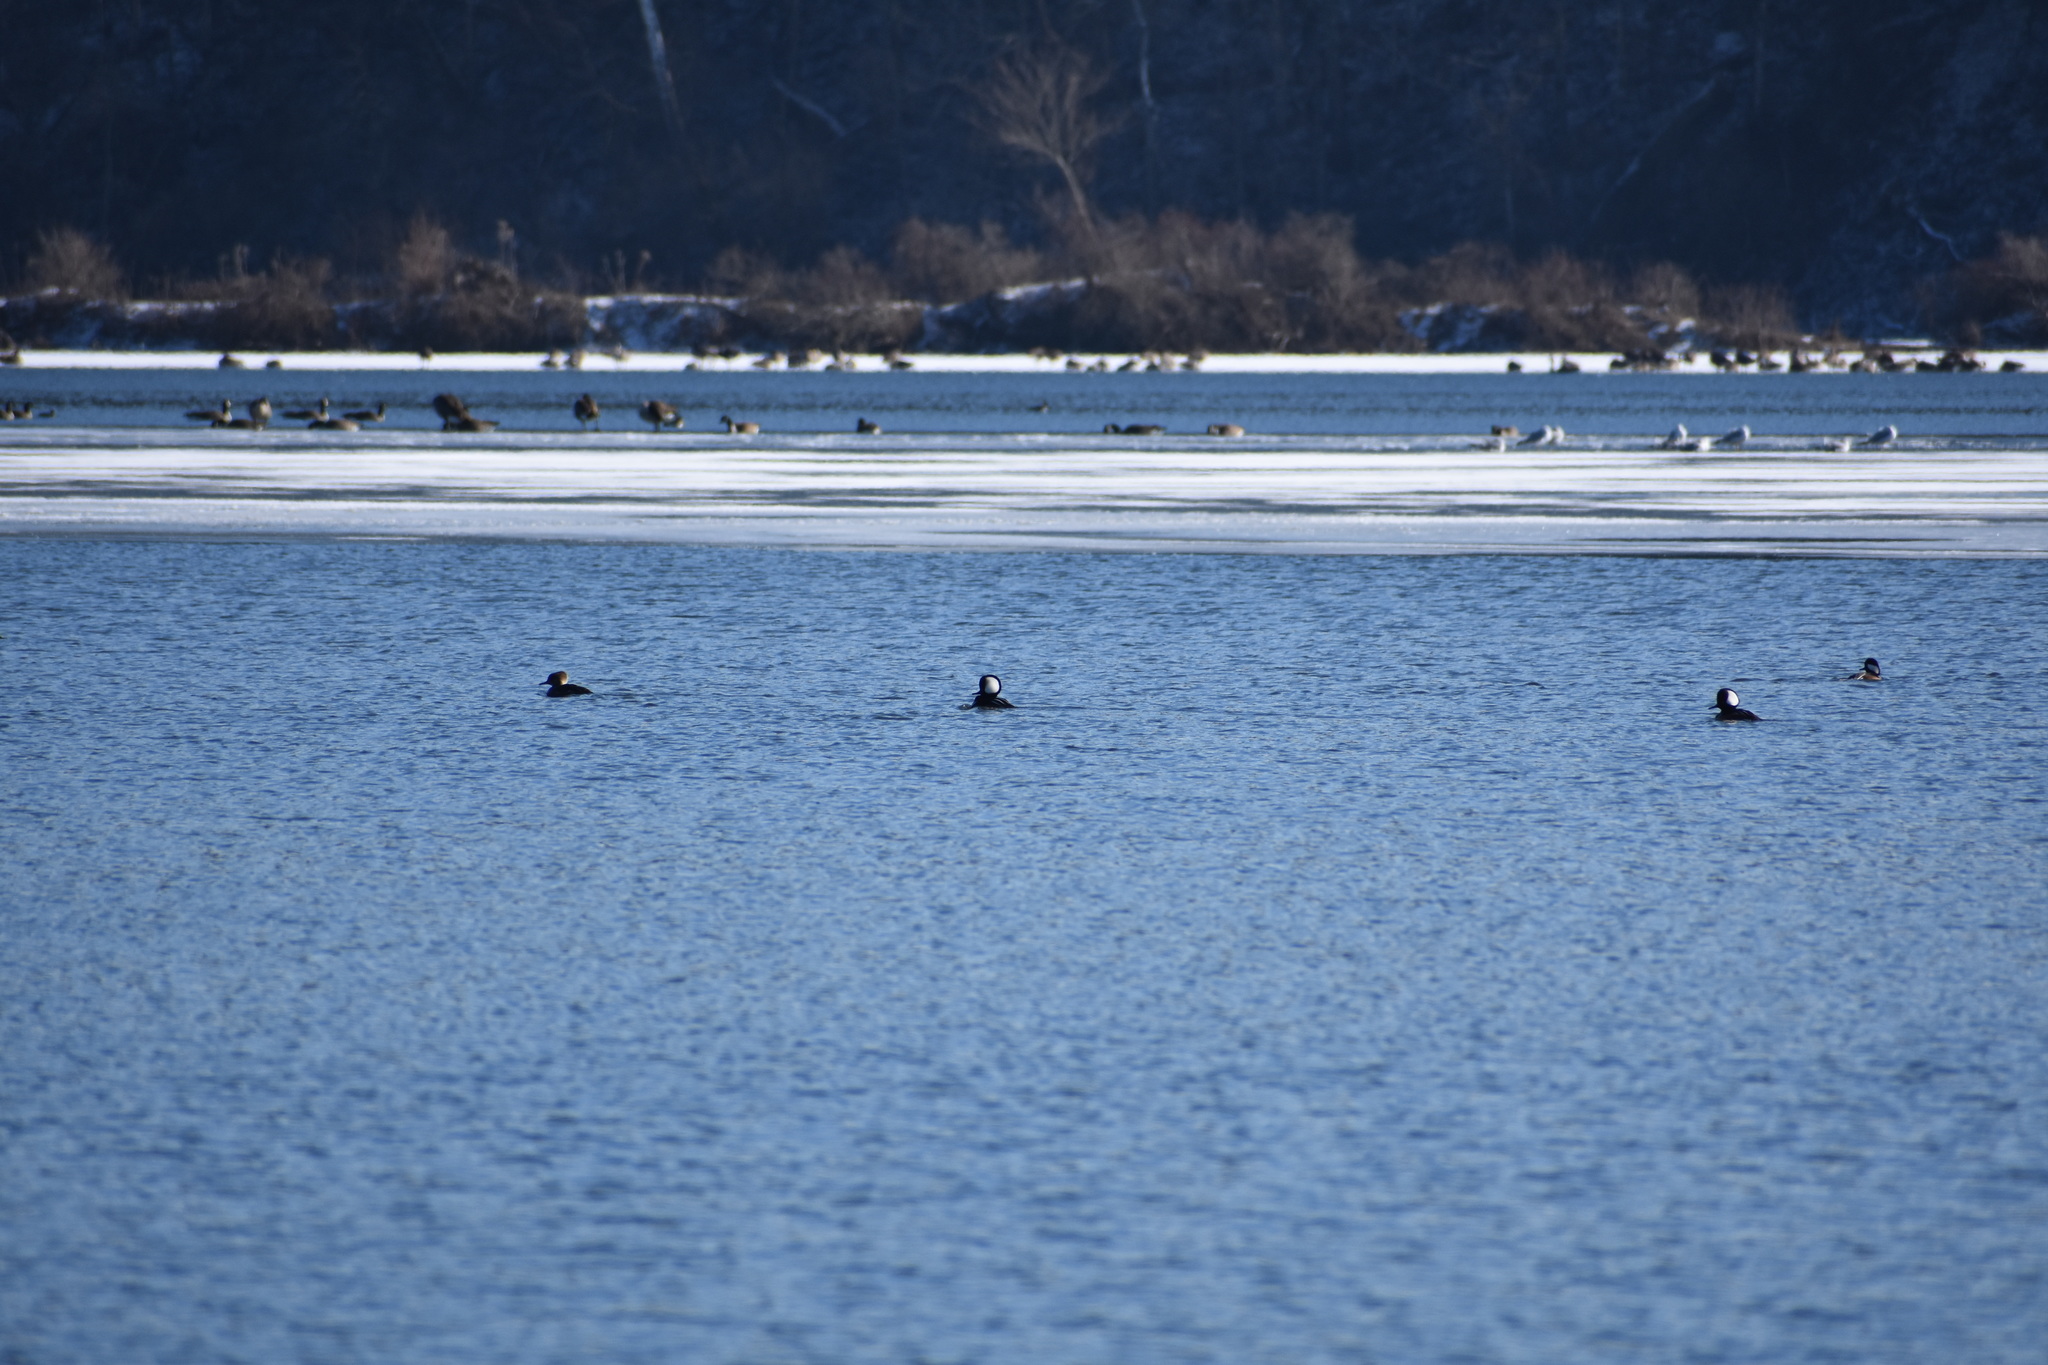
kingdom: Animalia
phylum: Chordata
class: Aves
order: Anseriformes
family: Anatidae
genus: Lophodytes
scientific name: Lophodytes cucullatus
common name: Hooded merganser
